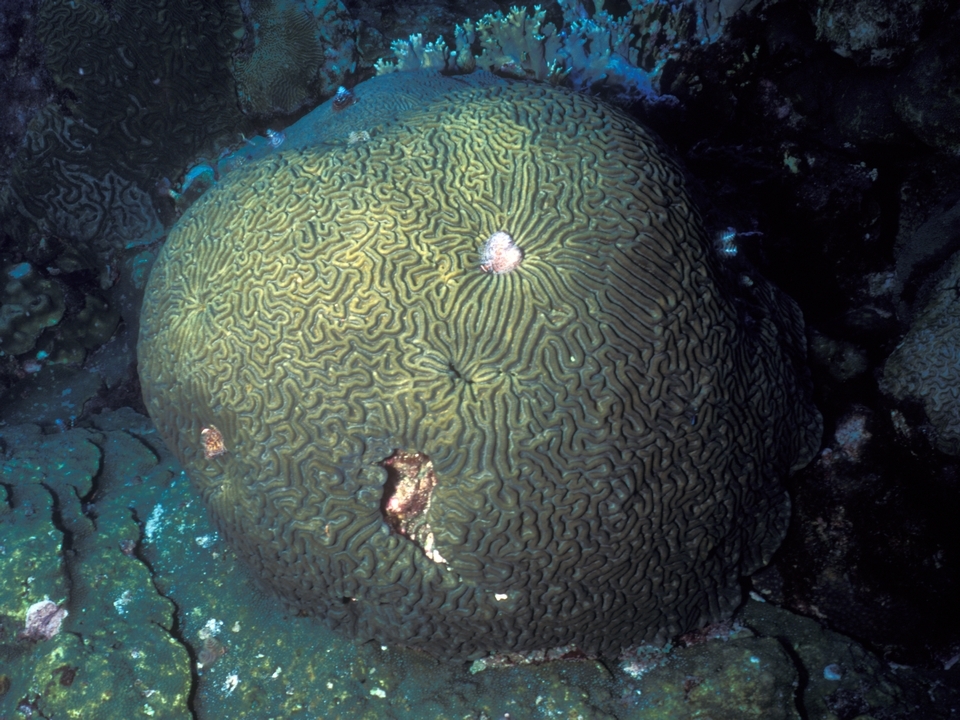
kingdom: Animalia
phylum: Cnidaria
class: Anthozoa
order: Scleractinia
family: Faviidae
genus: Pseudodiploria
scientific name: Pseudodiploria strigosa
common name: Symmetrical brain coral
